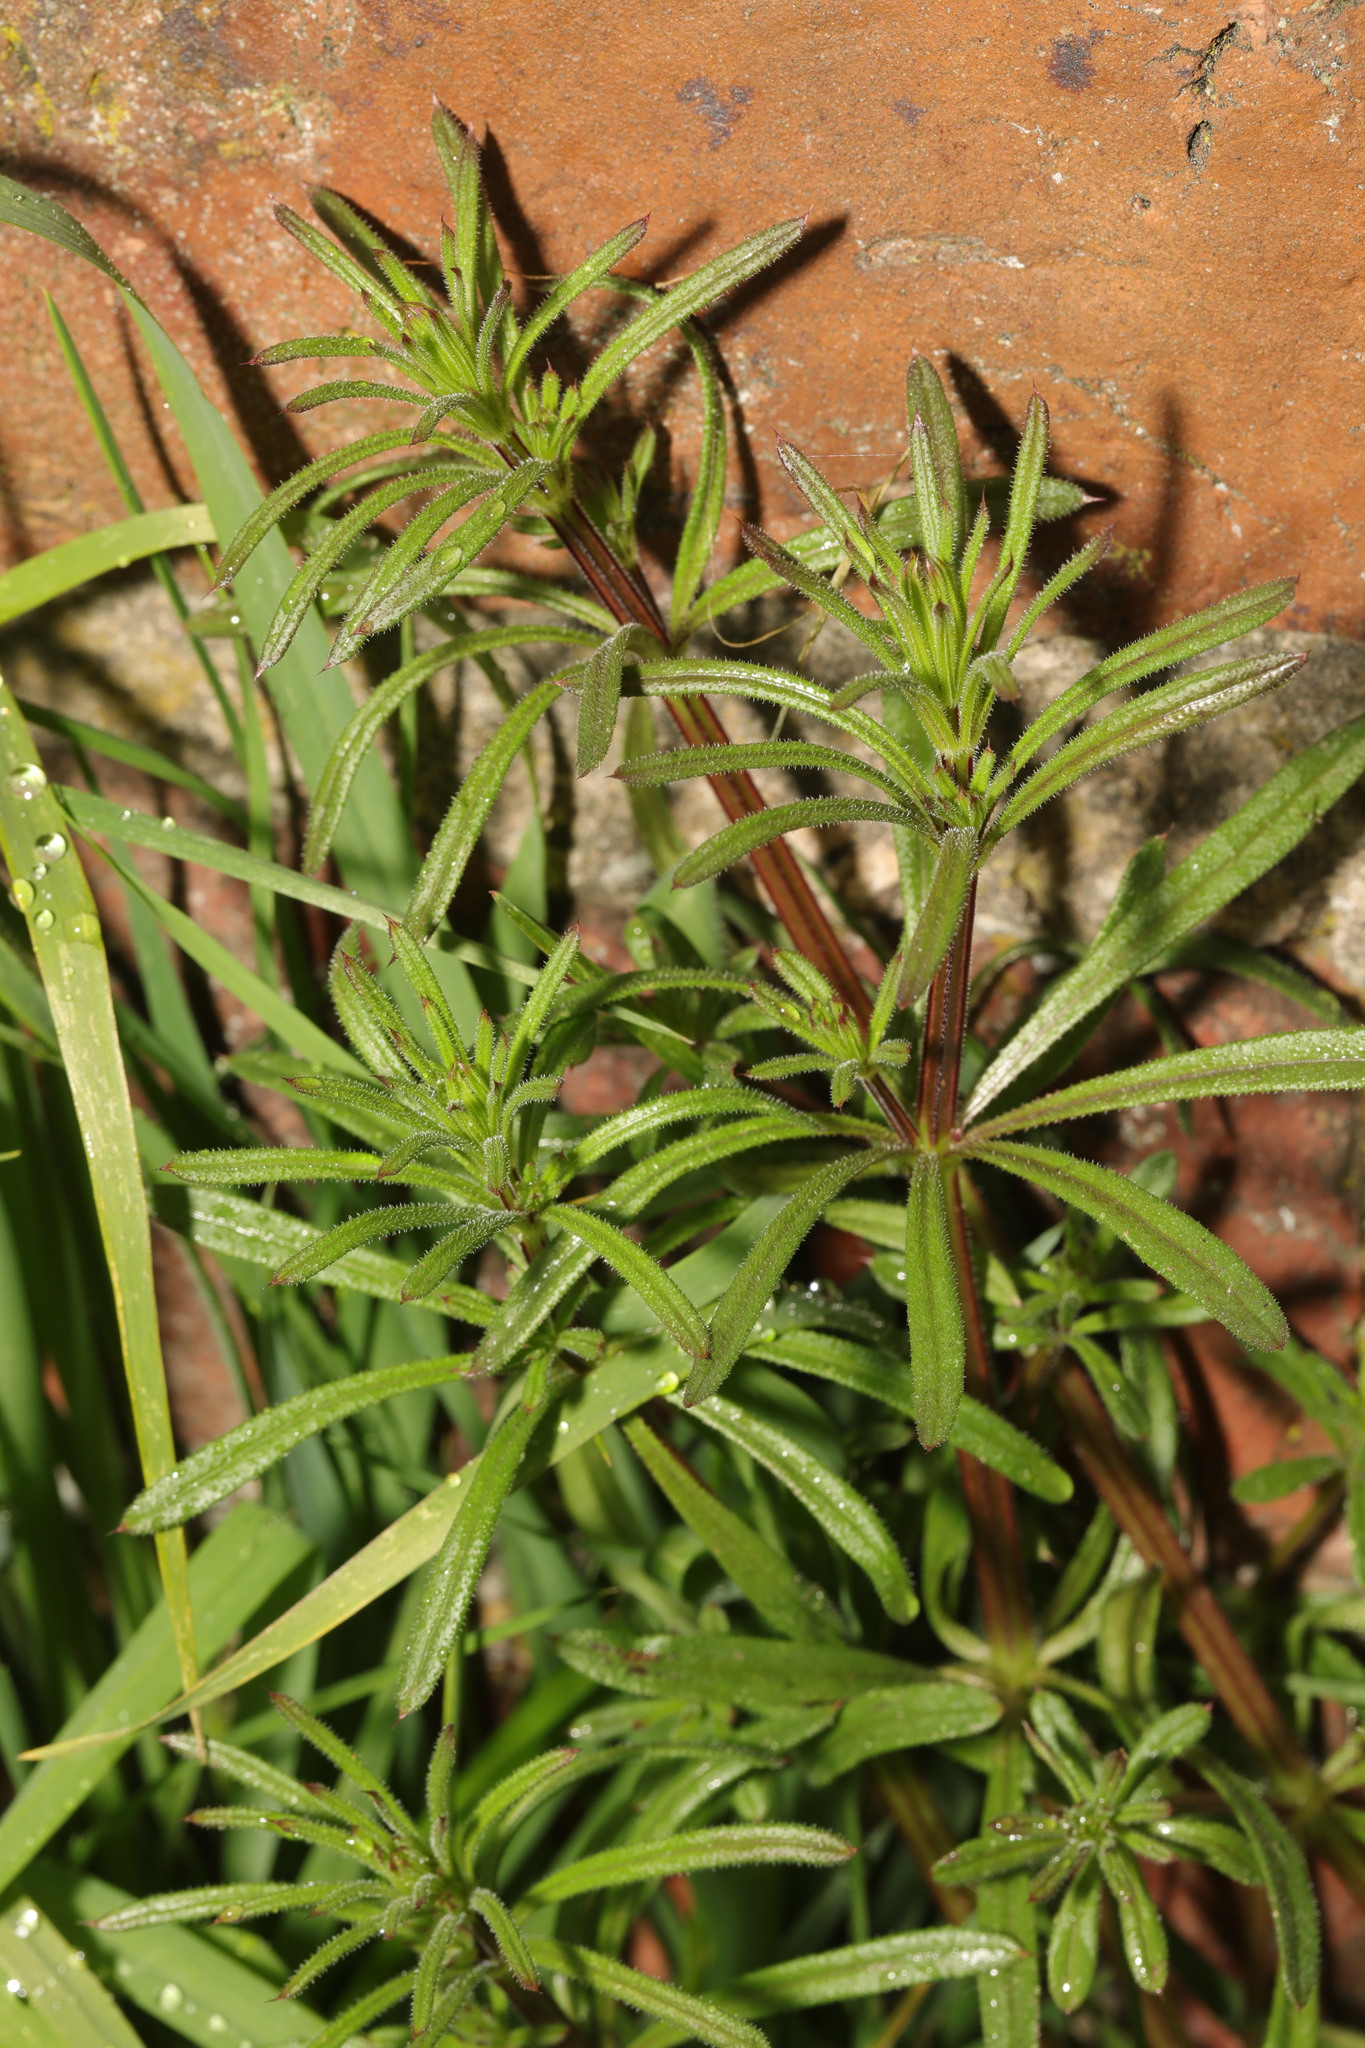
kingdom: Plantae
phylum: Tracheophyta
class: Magnoliopsida
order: Gentianales
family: Rubiaceae
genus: Galium
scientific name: Galium aparine
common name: Cleavers
